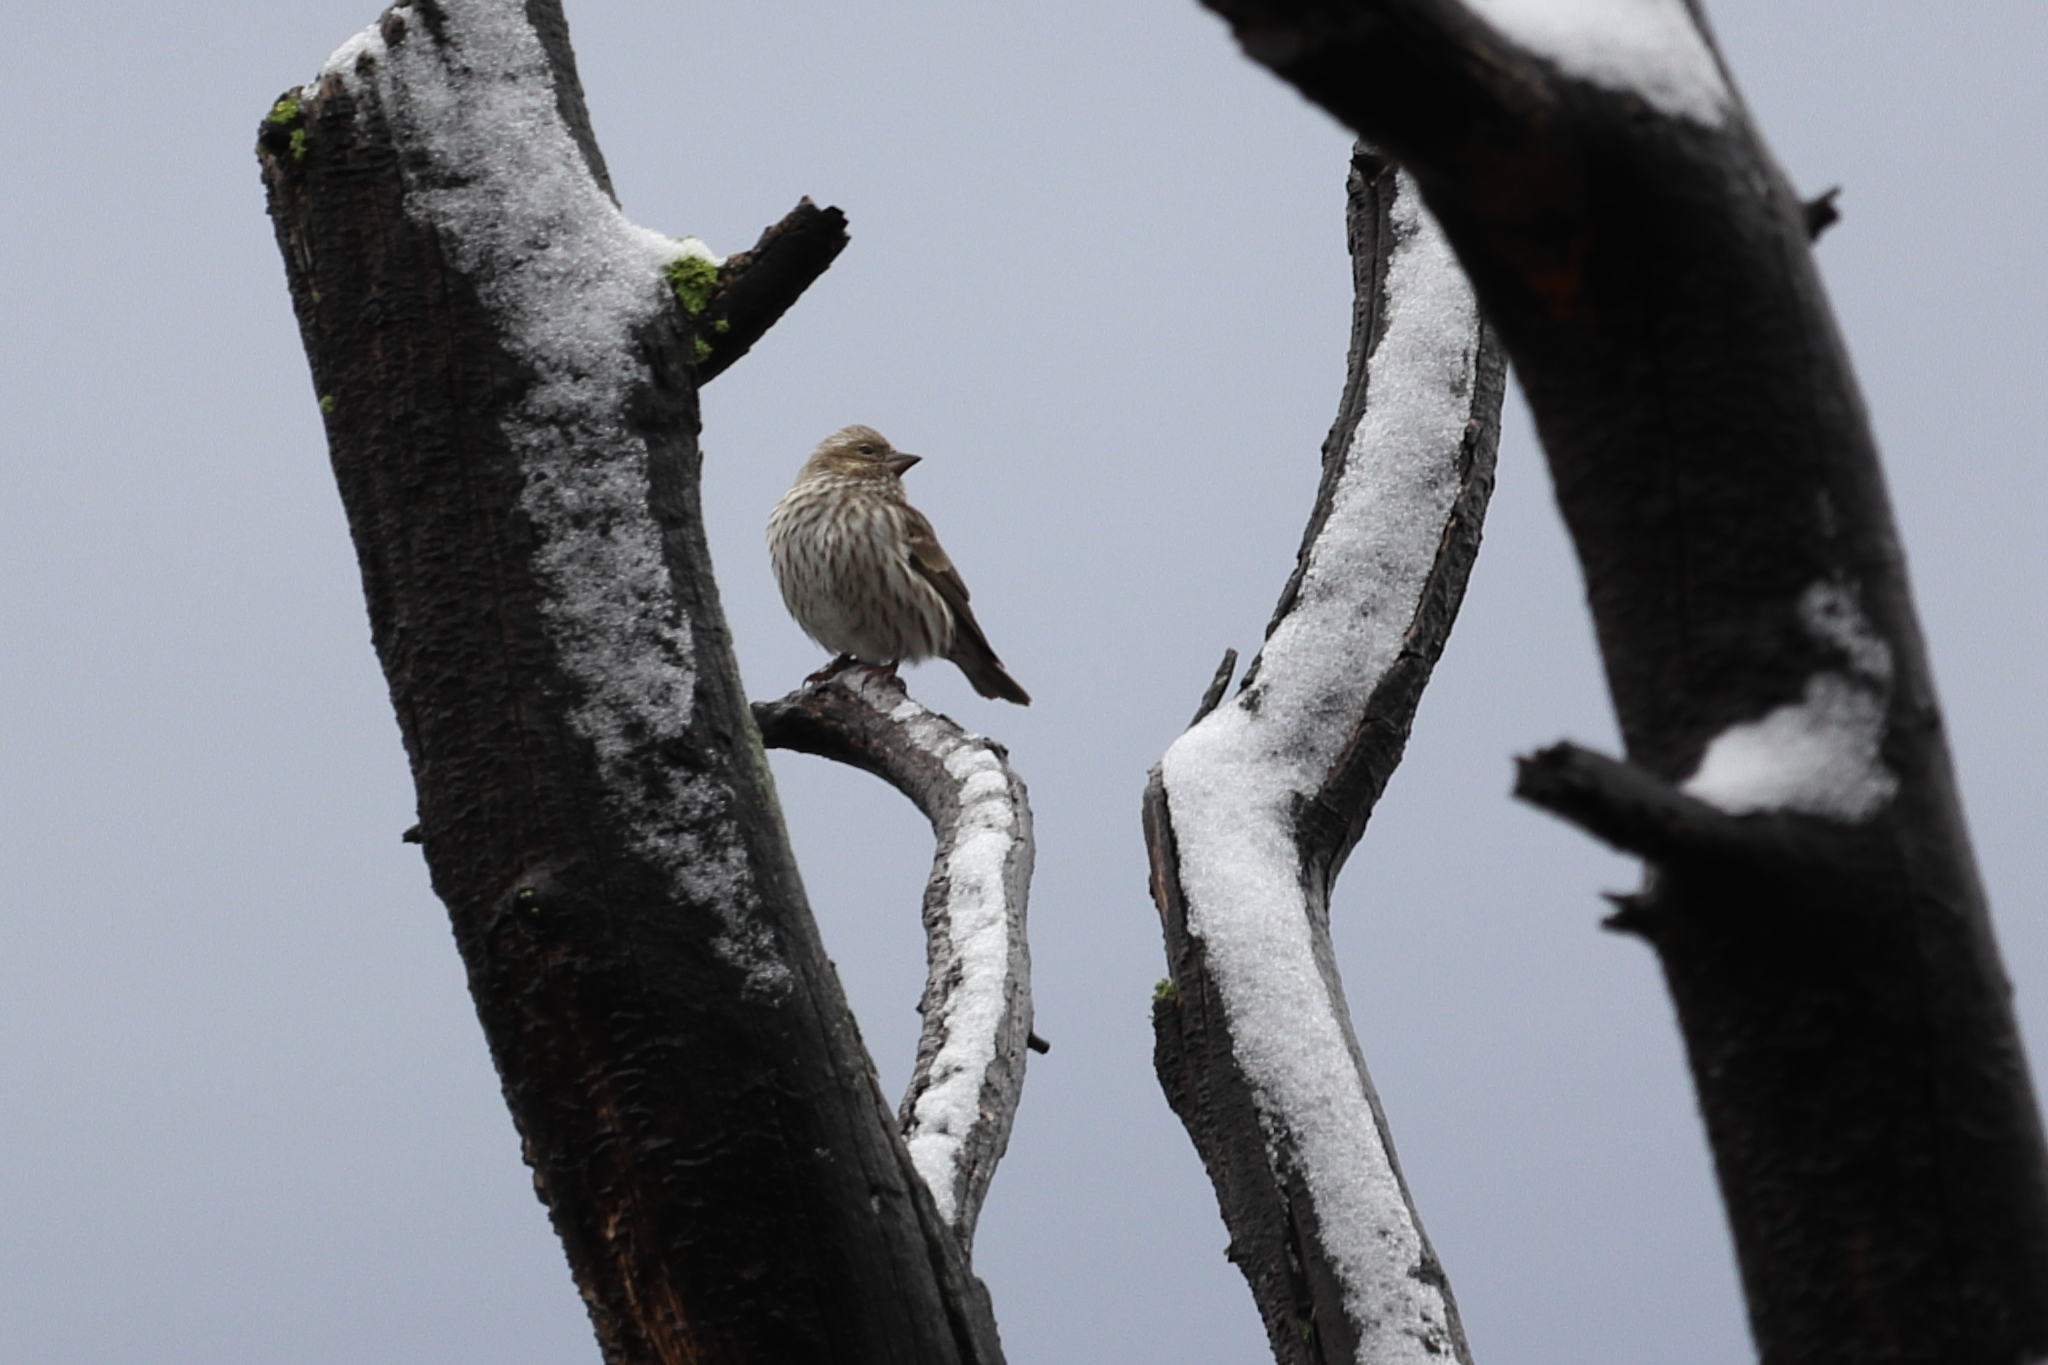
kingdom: Animalia
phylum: Chordata
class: Aves
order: Passeriformes
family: Fringillidae
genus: Haemorhous
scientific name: Haemorhous cassinii
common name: Cassin's finch
